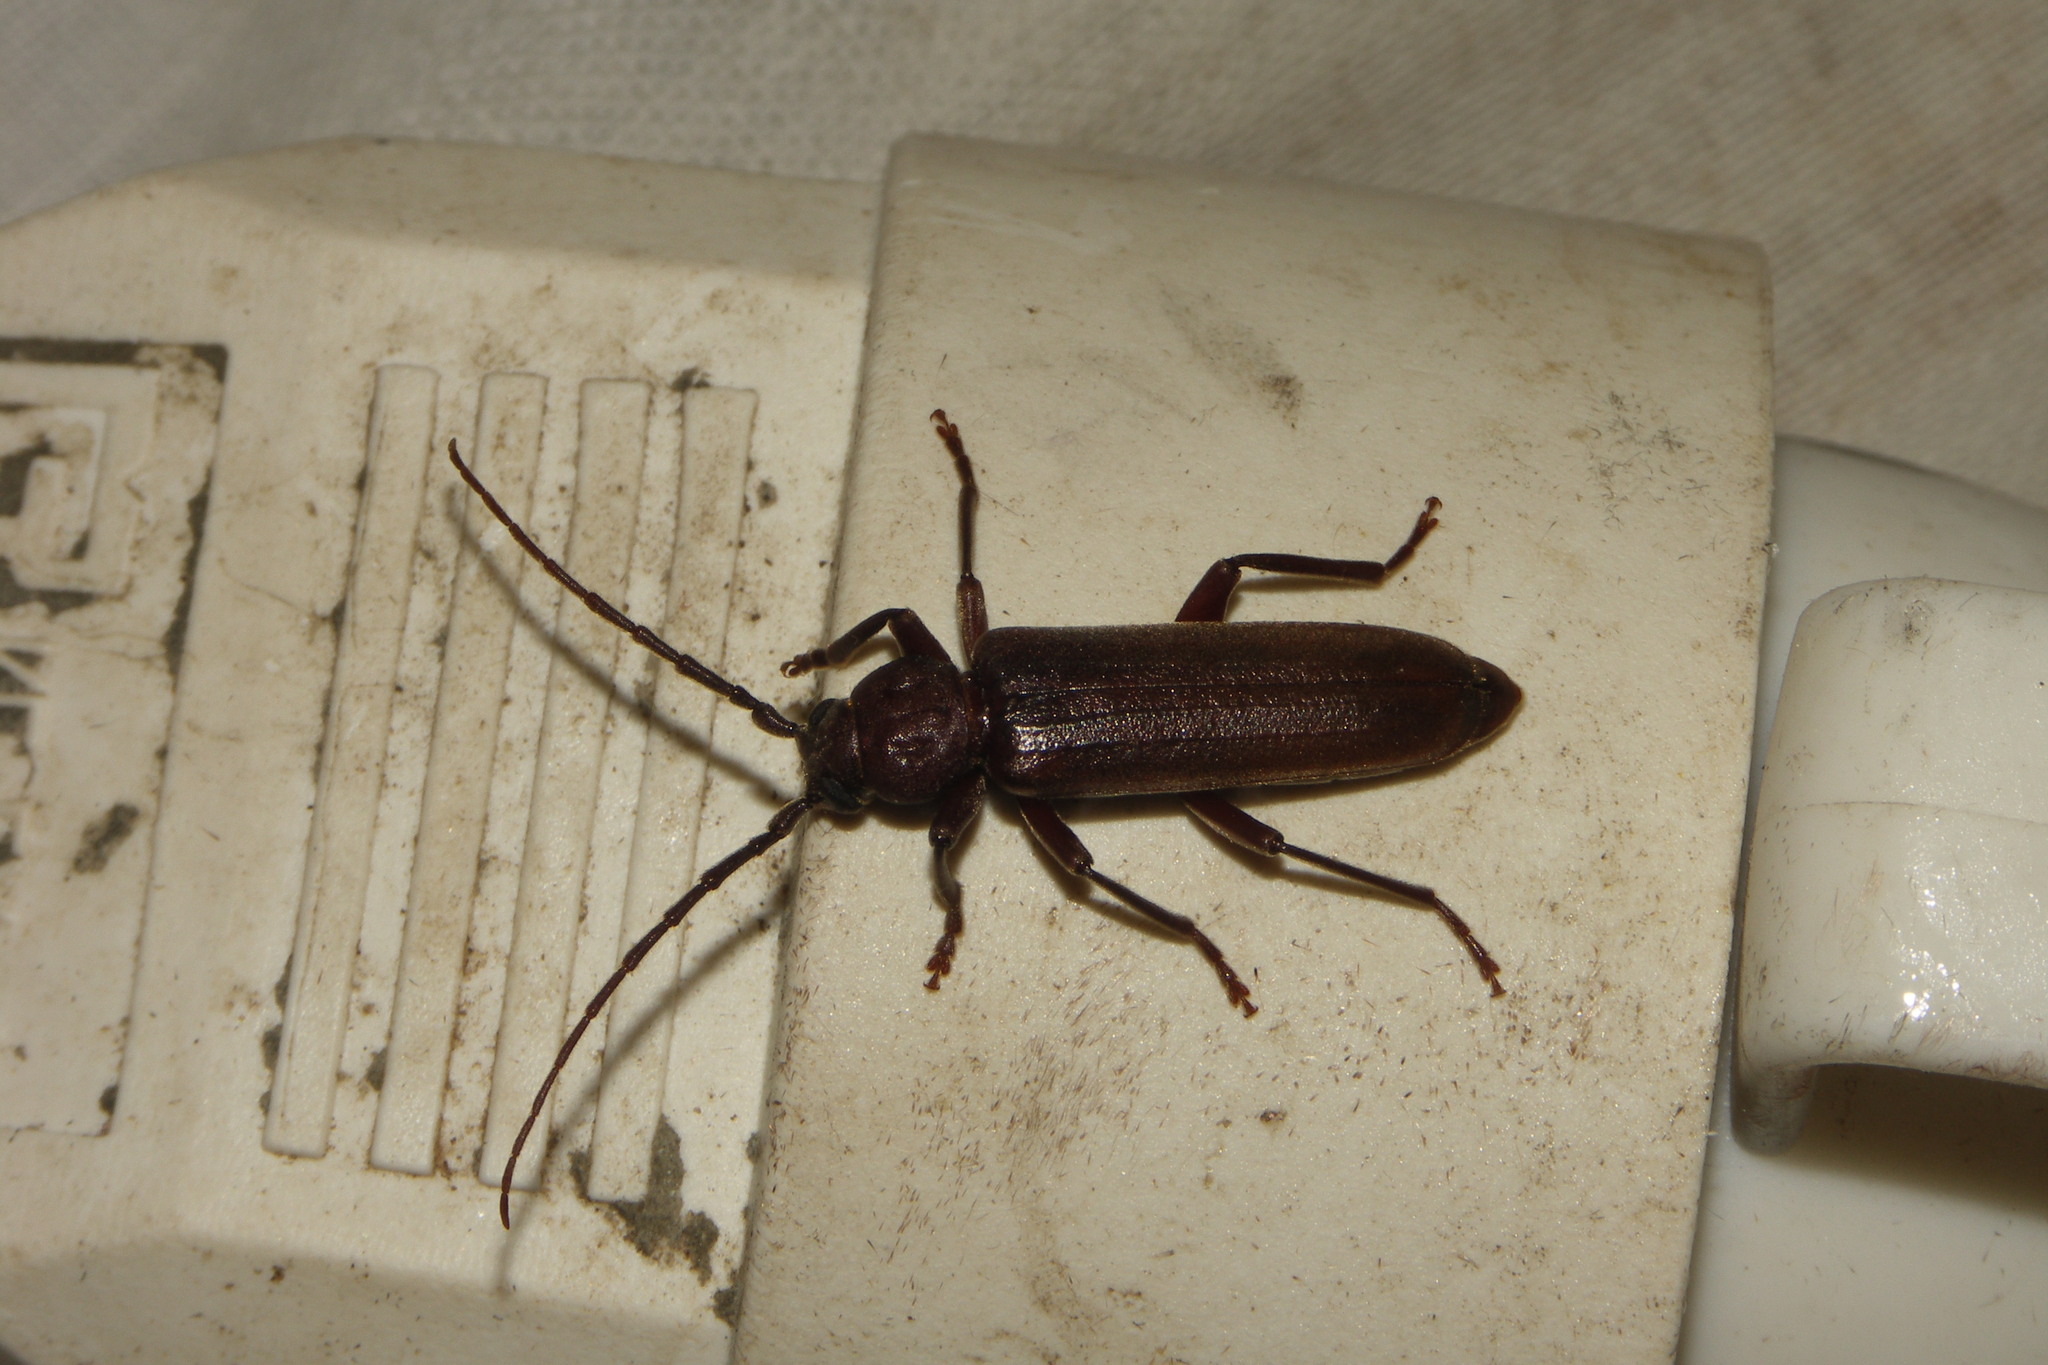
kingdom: Animalia
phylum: Arthropoda
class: Insecta
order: Coleoptera
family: Cerambycidae
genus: Arhopalus
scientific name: Arhopalus rusticus
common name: Rust pine borer
